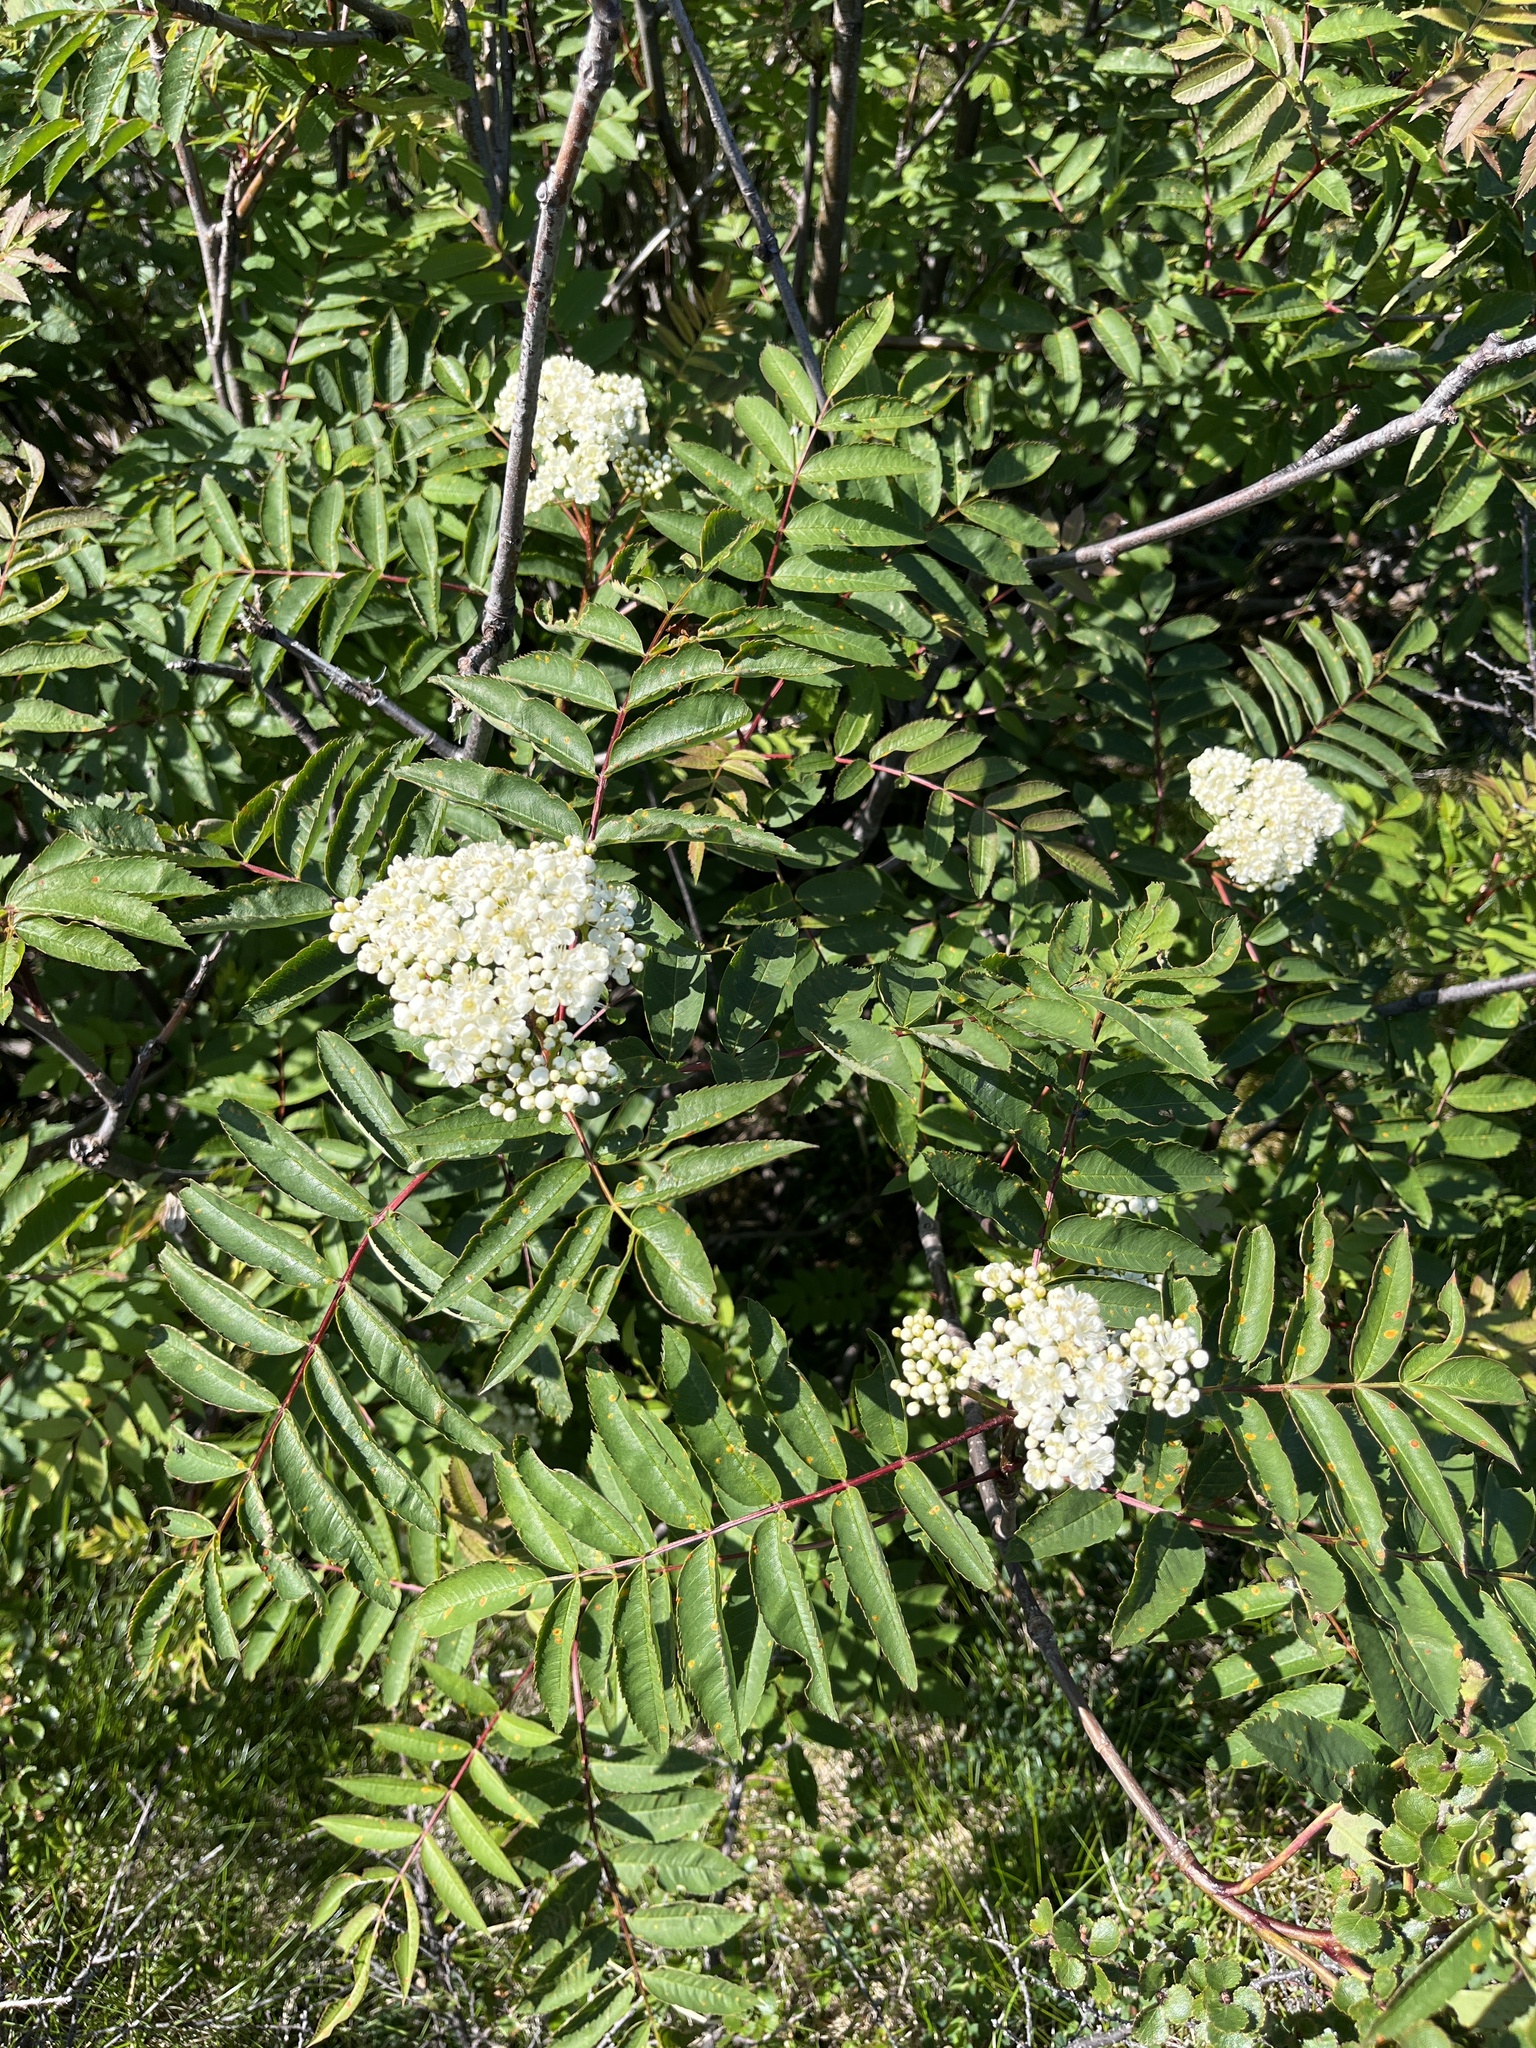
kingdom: Plantae
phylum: Tracheophyta
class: Magnoliopsida
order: Rosales
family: Rosaceae
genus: Sorbus
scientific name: Sorbus decora
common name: Northern mountain-ash
